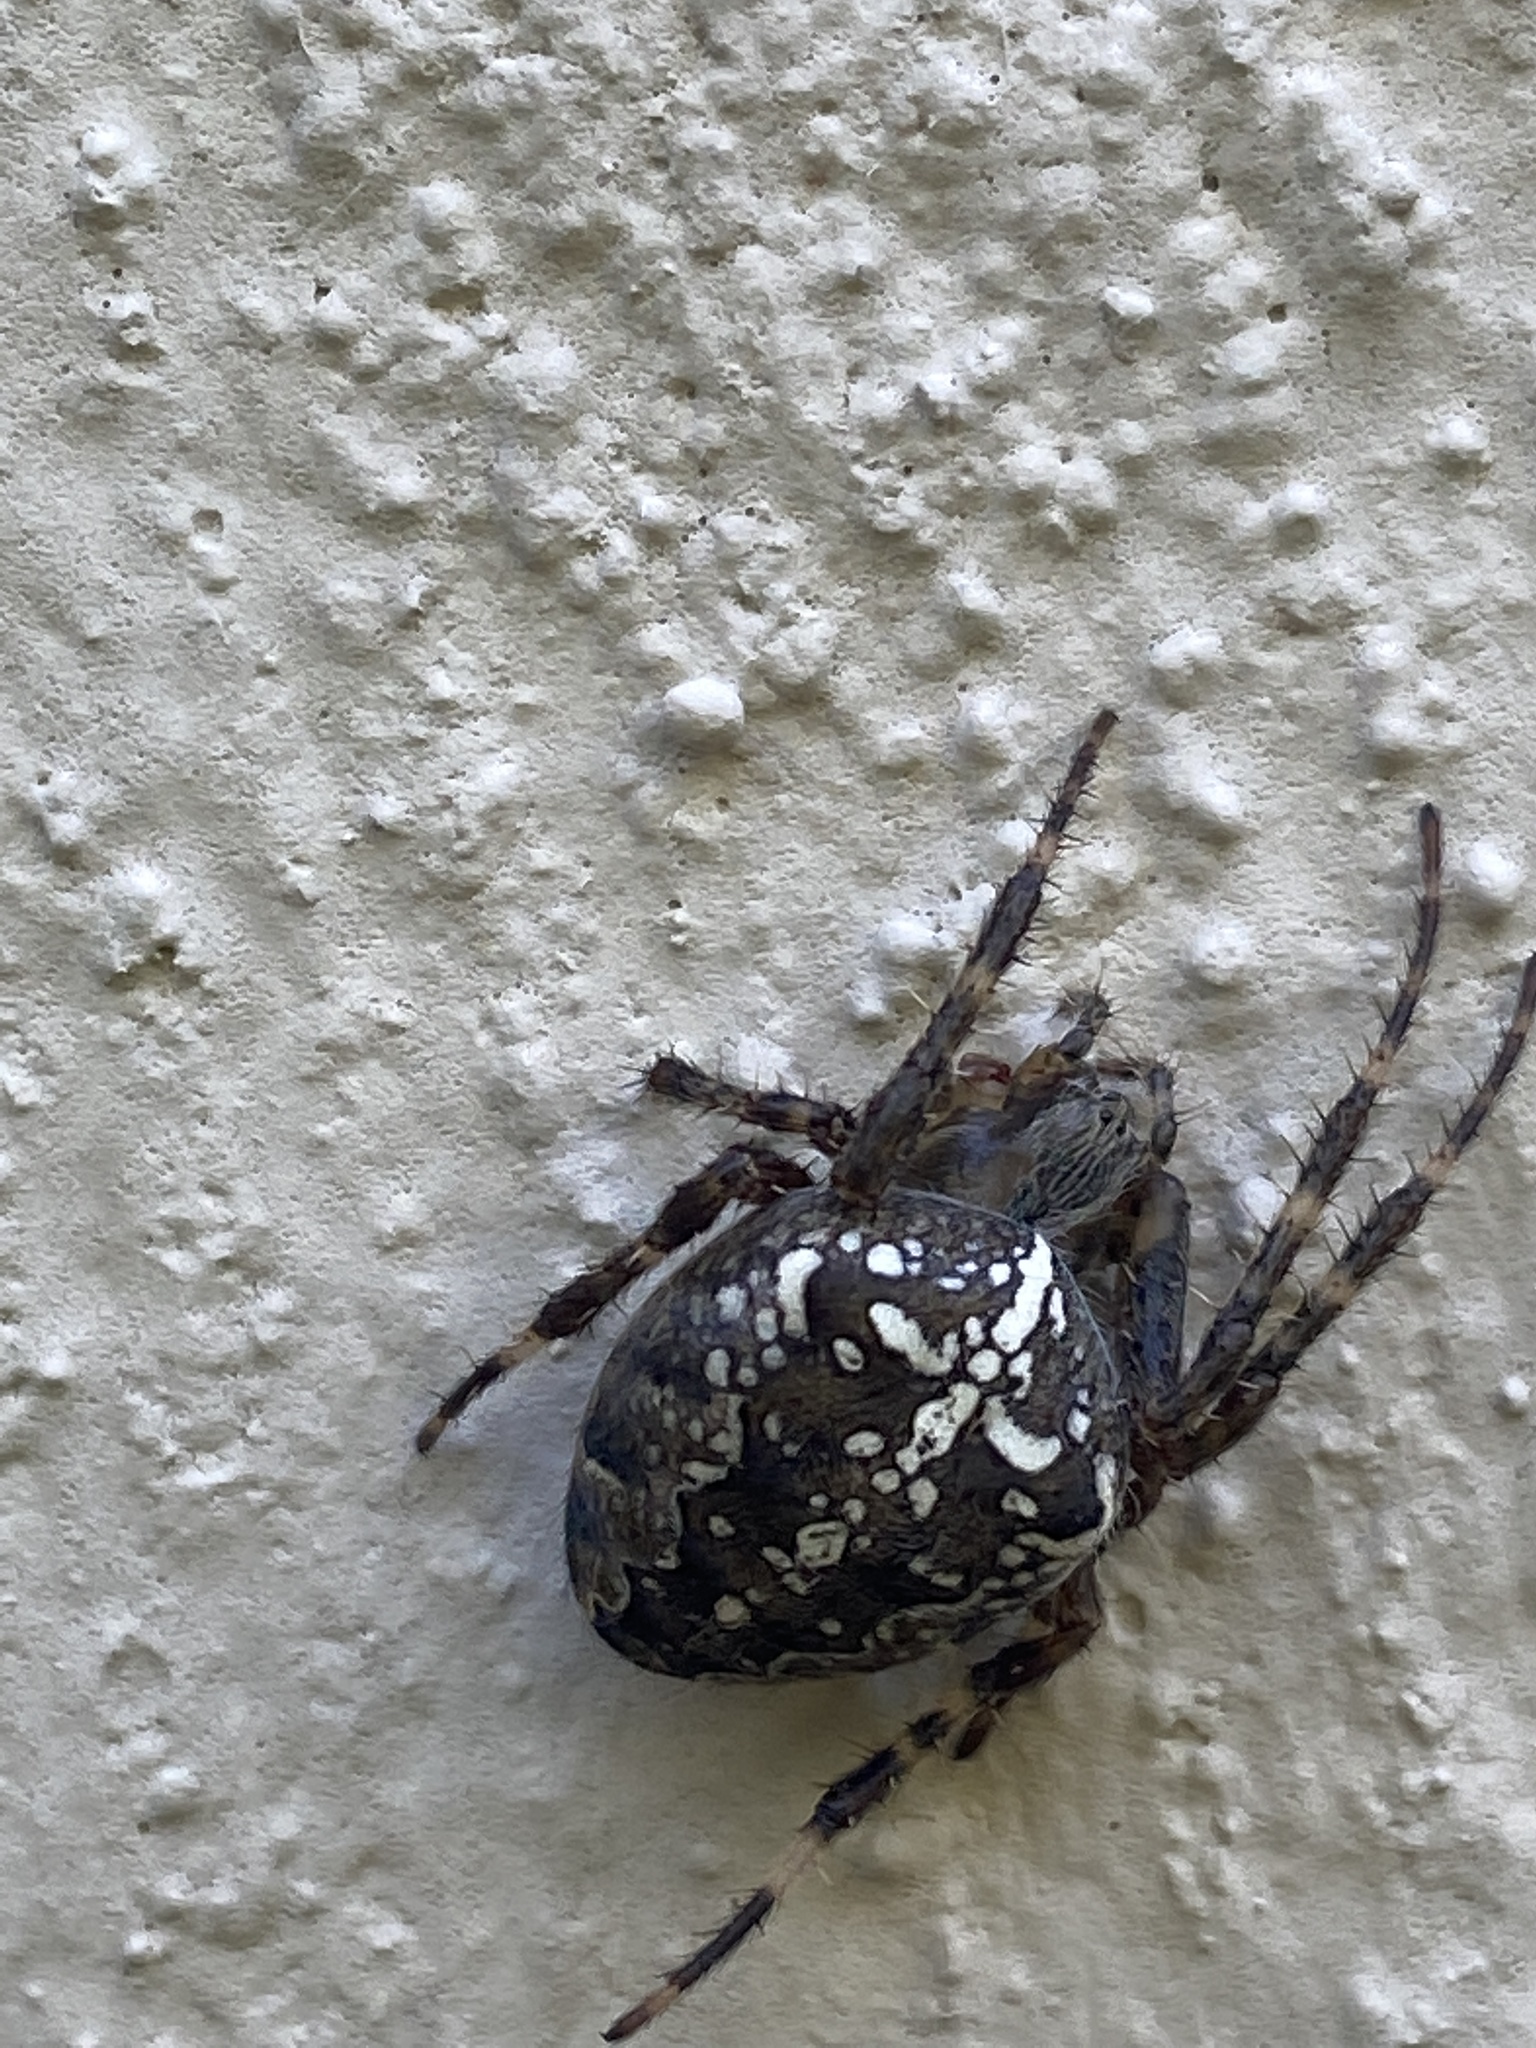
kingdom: Animalia
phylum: Arthropoda
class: Arachnida
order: Araneae
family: Araneidae
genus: Araneus
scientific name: Araneus diadematus
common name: Cross orbweaver
